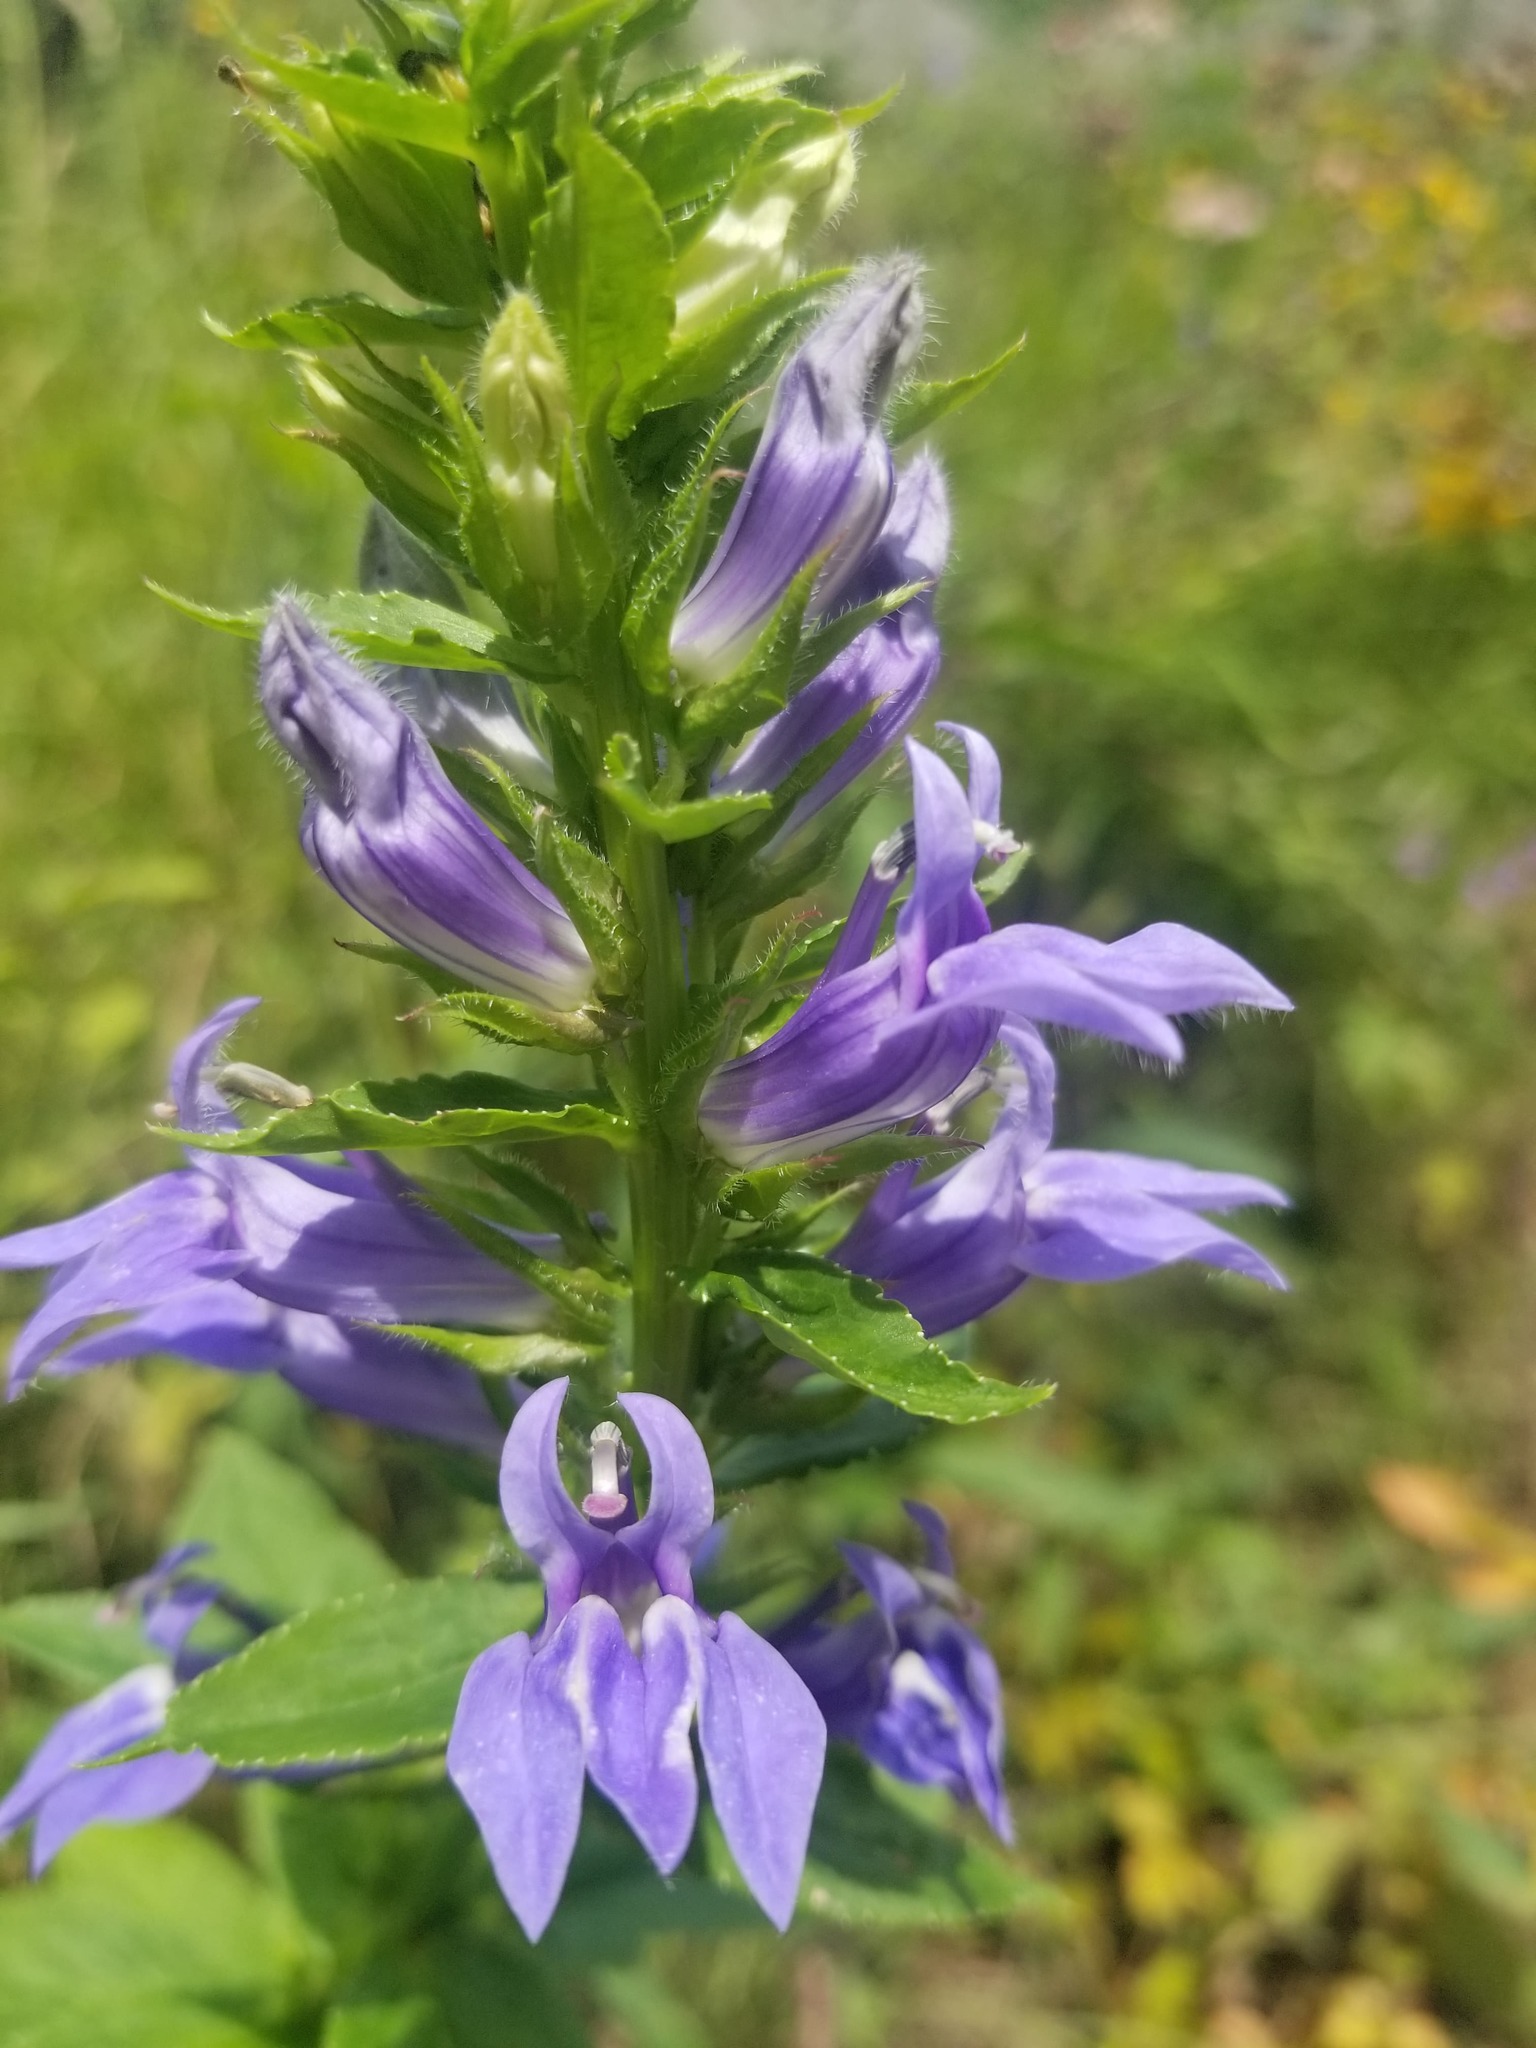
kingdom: Plantae
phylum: Tracheophyta
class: Magnoliopsida
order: Asterales
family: Campanulaceae
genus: Lobelia
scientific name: Lobelia siphilitica
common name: Great lobelia
